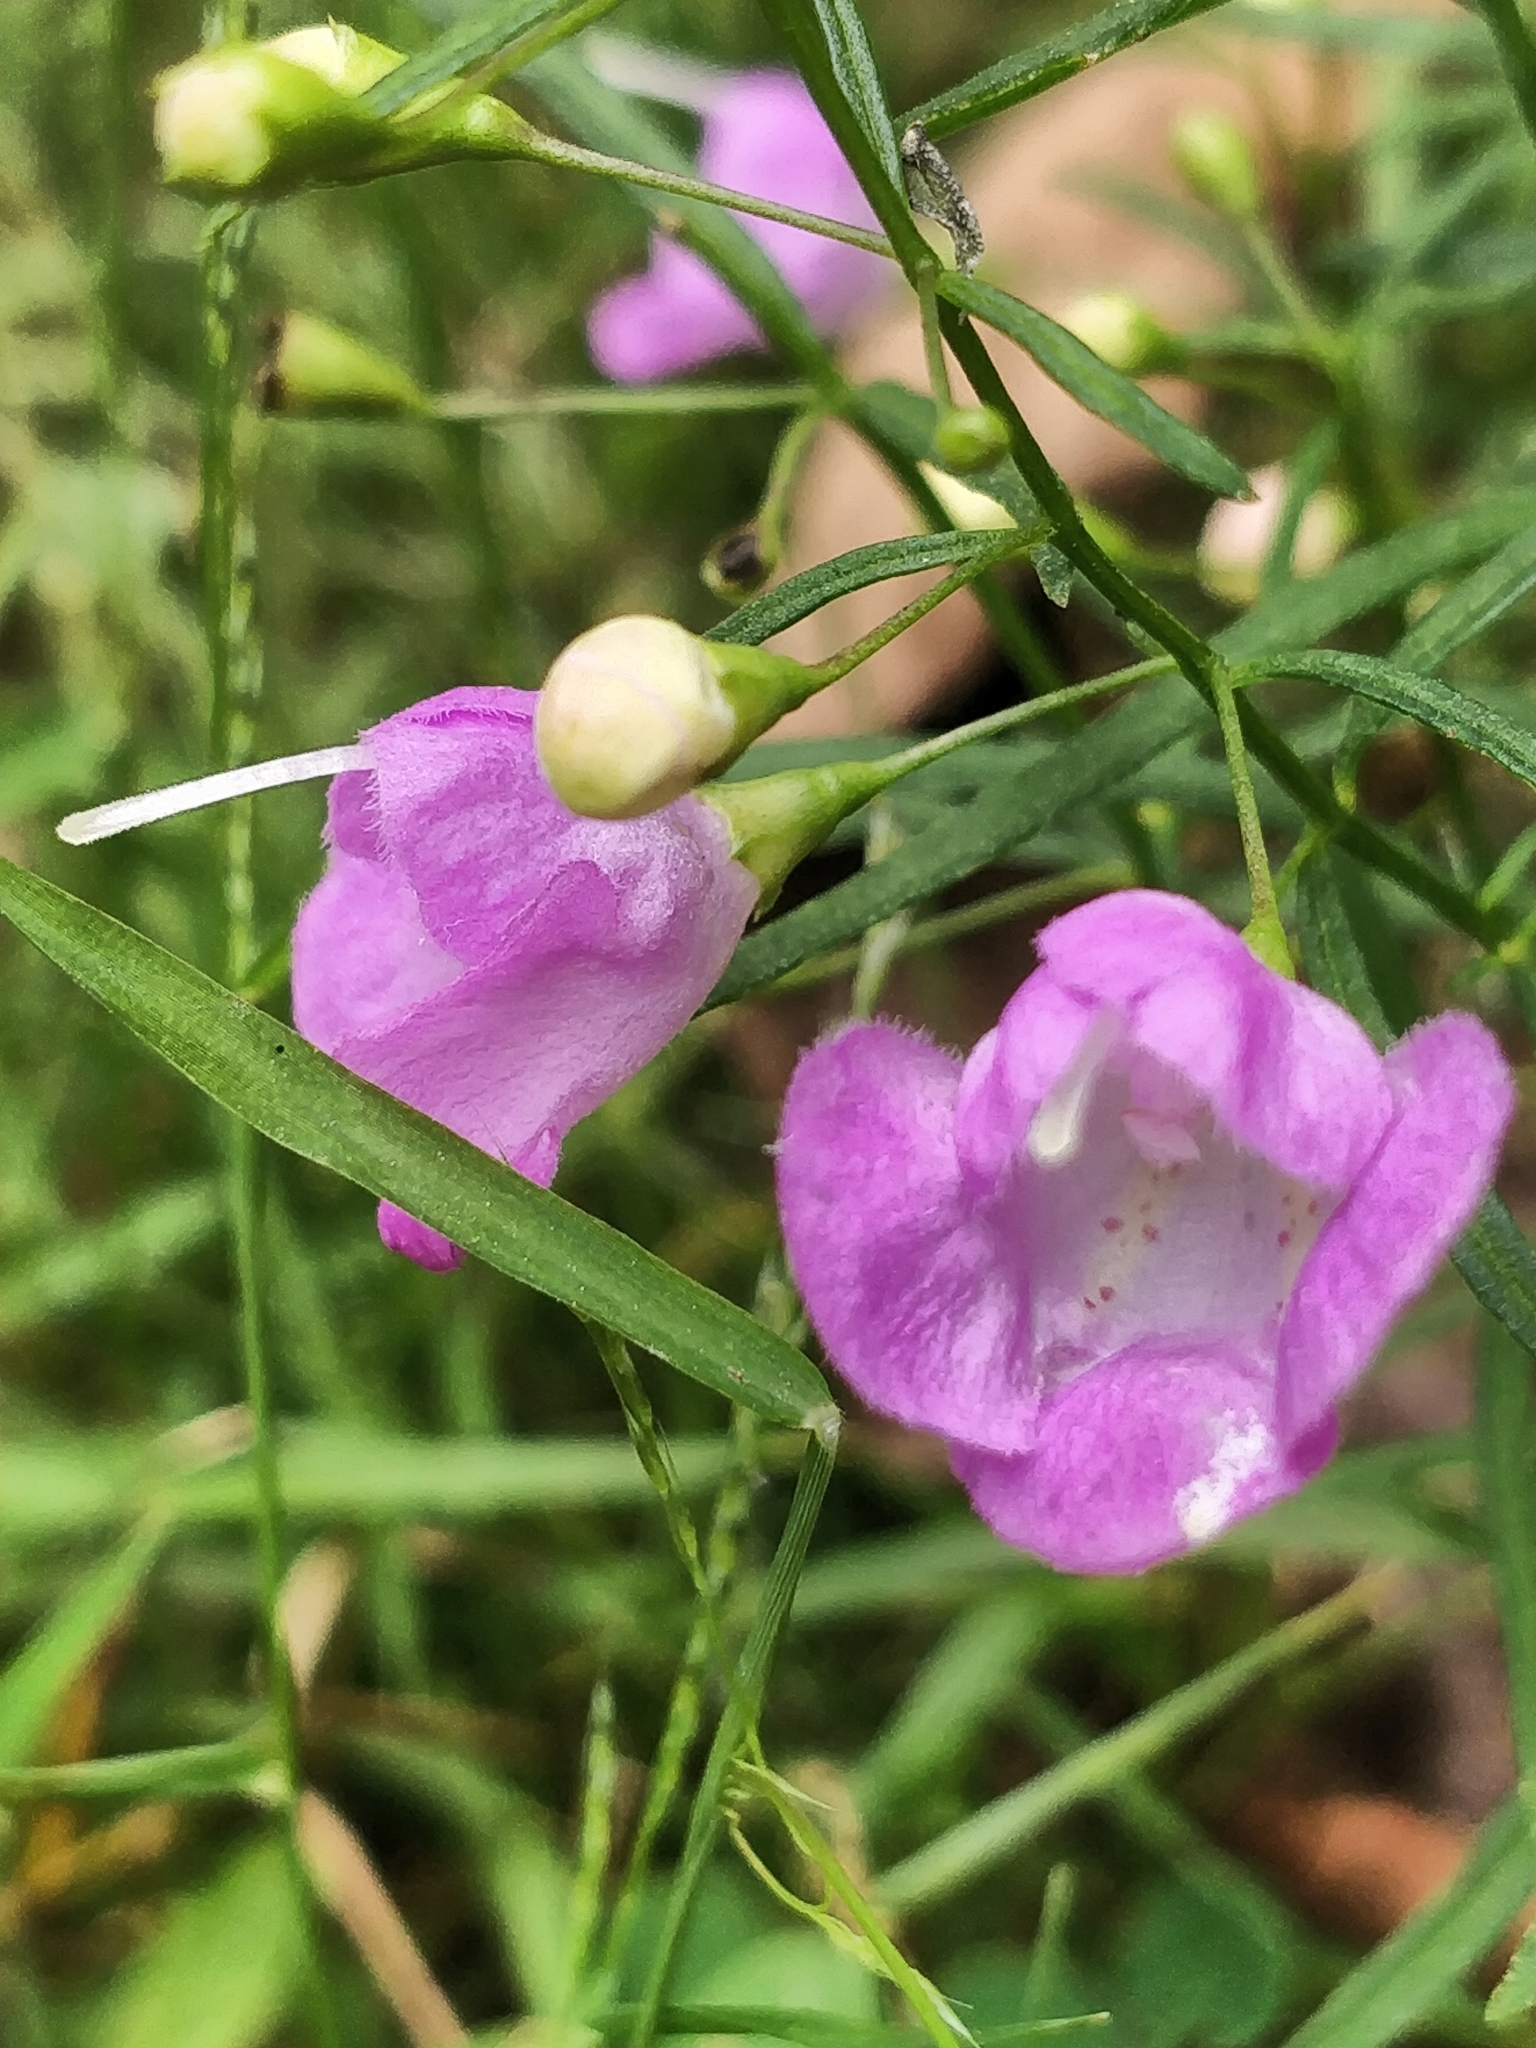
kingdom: Plantae
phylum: Tracheophyta
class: Magnoliopsida
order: Lamiales
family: Orobanchaceae
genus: Agalinis
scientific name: Agalinis tenuifolia
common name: Slender agalinis
